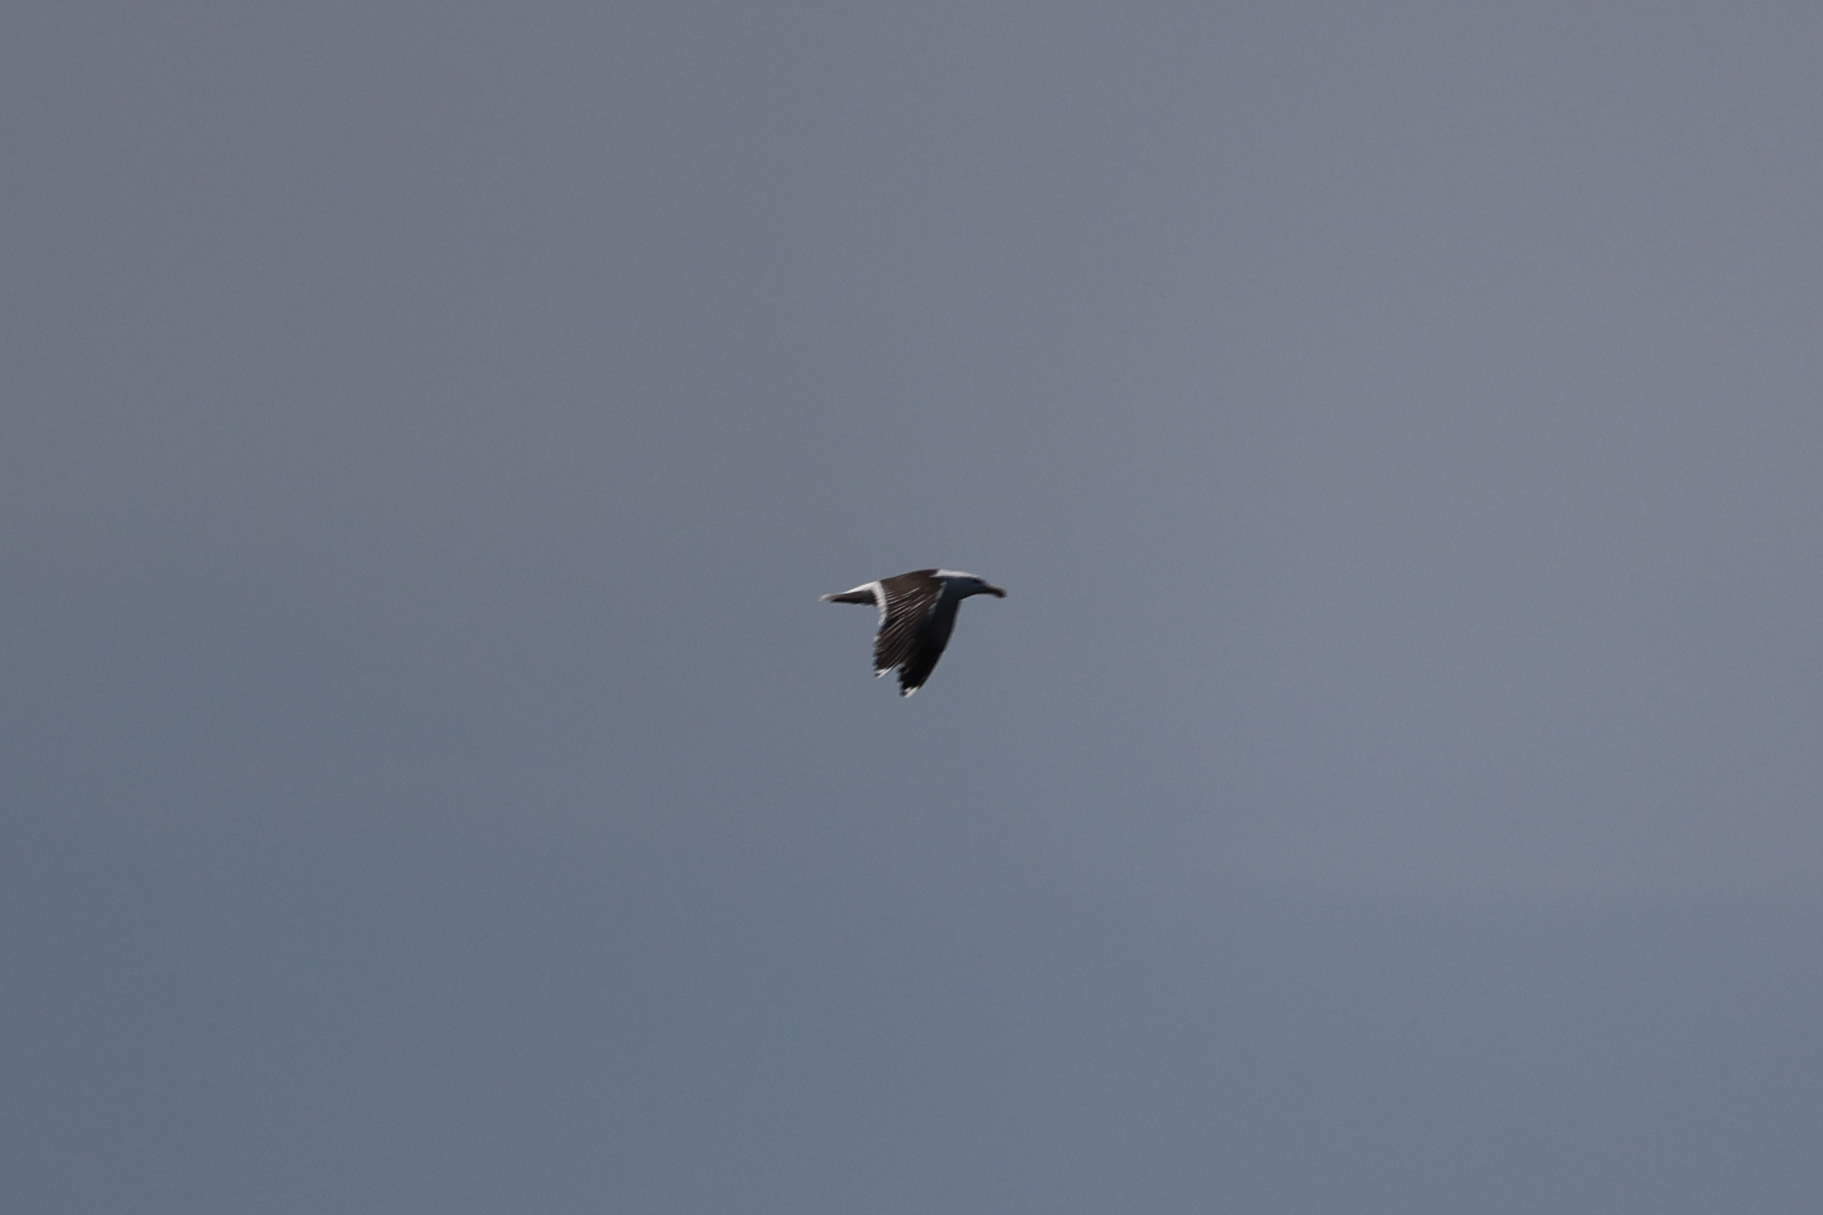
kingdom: Animalia
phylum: Chordata
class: Aves
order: Charadriiformes
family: Laridae
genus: Larus
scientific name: Larus marinus
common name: Great black-backed gull
